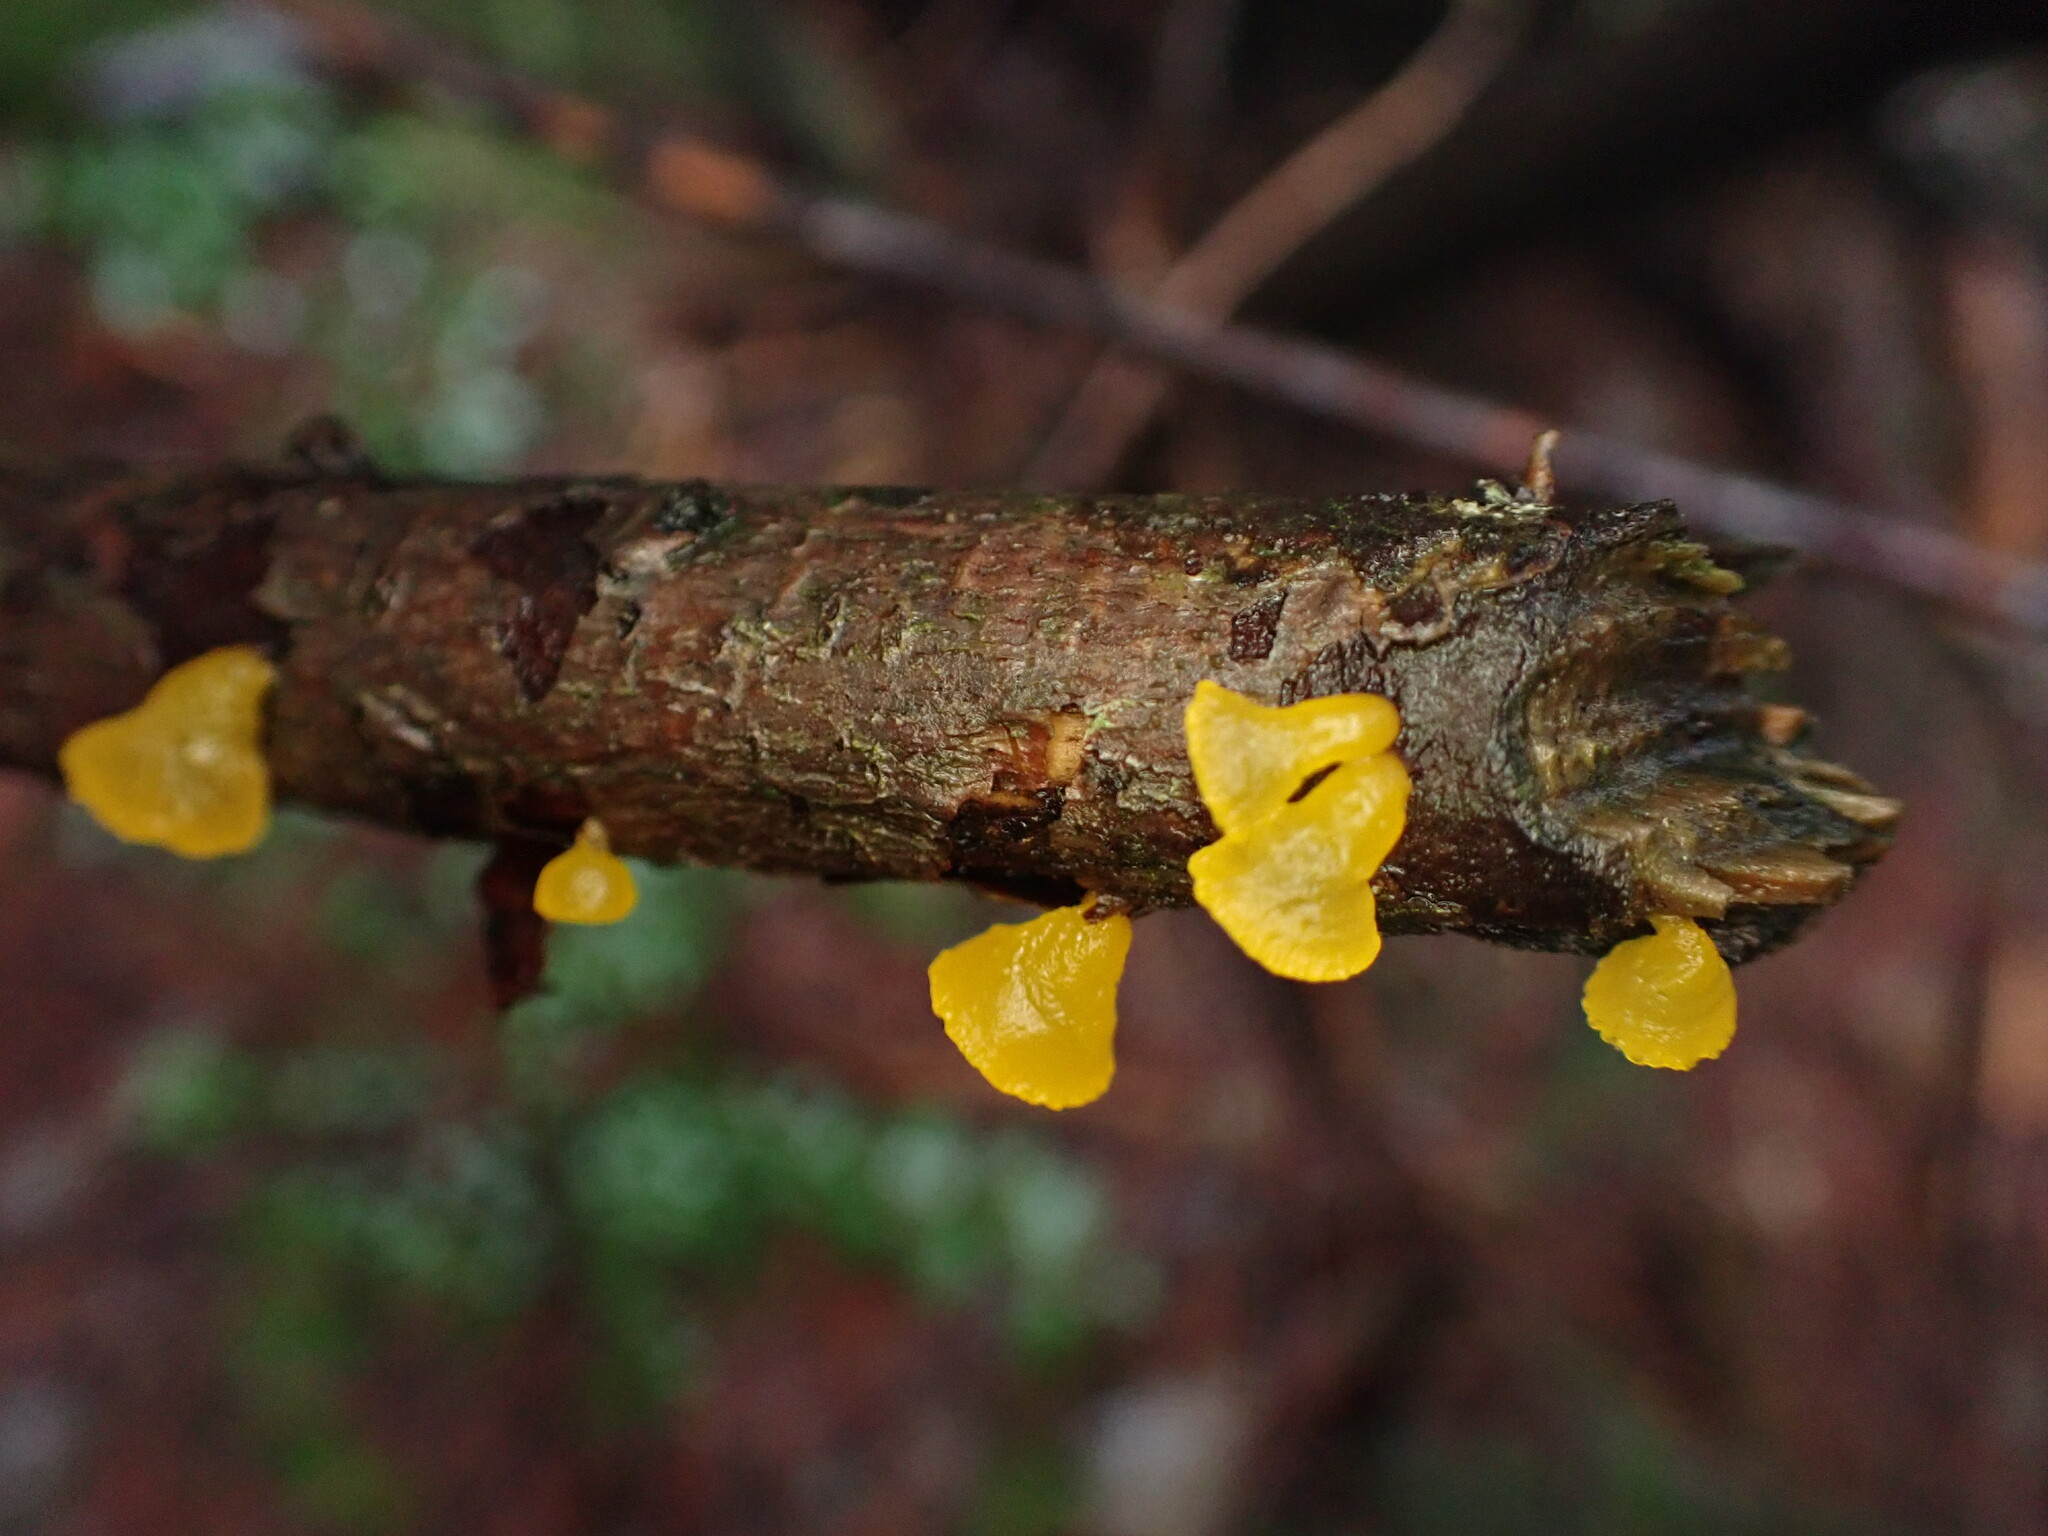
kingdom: Fungi
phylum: Basidiomycota
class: Dacrymycetes
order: Dacrymycetales
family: Dacrymycetaceae
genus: Guepiniopsis
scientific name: Guepiniopsis alpina
